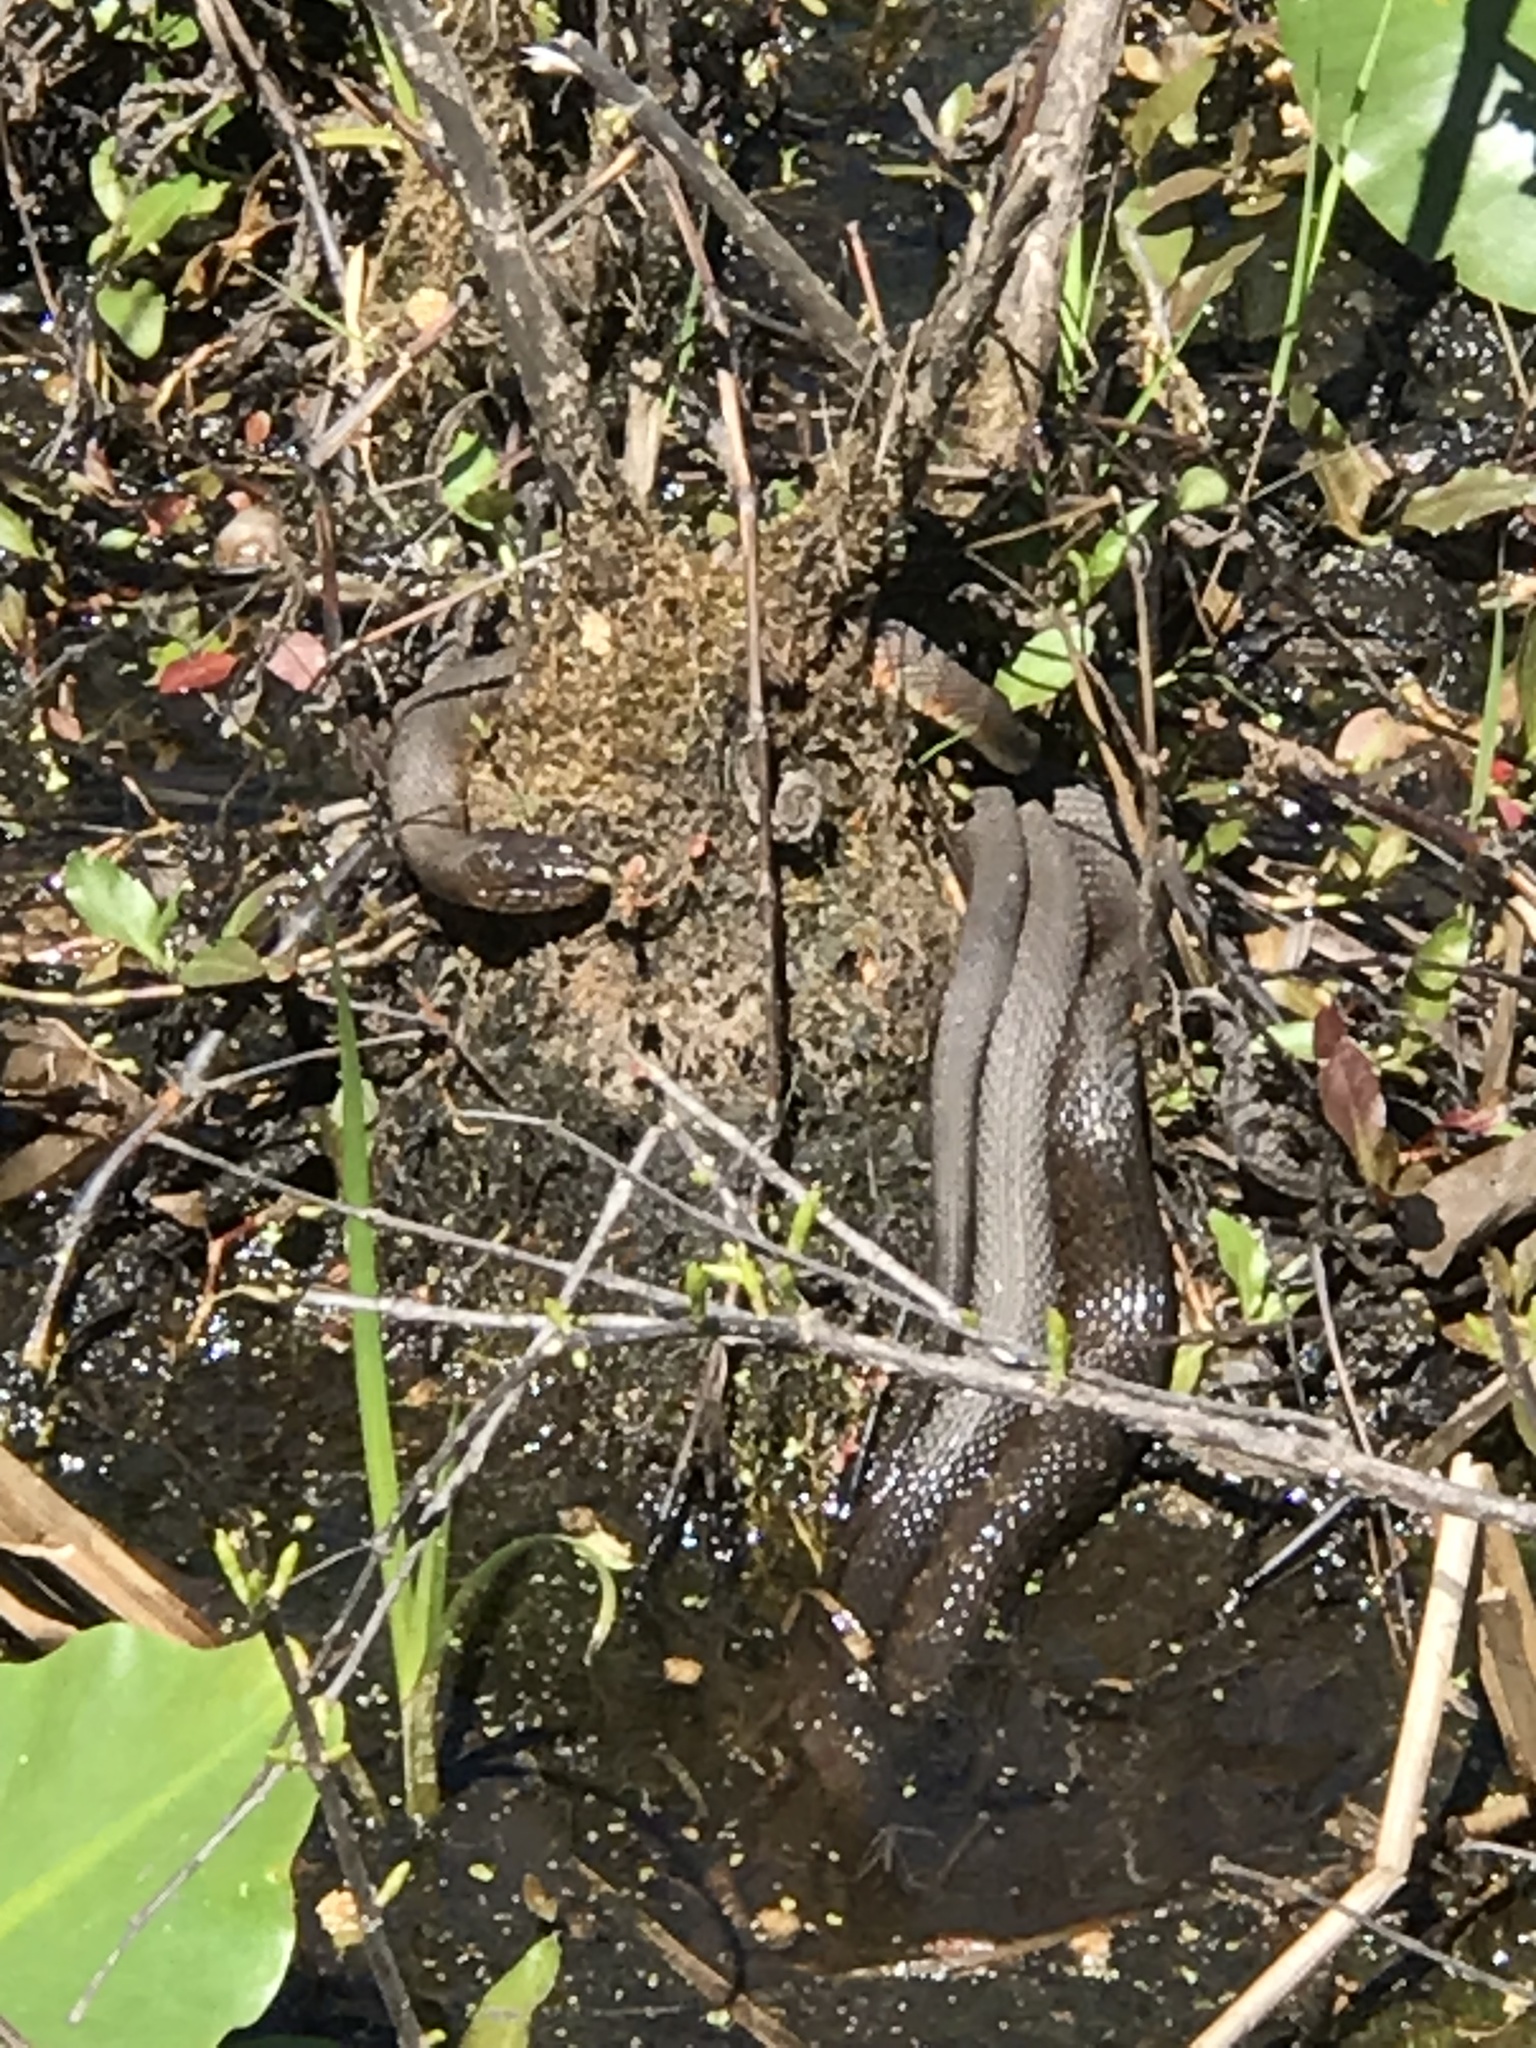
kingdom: Animalia
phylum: Chordata
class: Squamata
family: Colubridae
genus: Nerodia
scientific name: Nerodia sipedon
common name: Northern water snake
